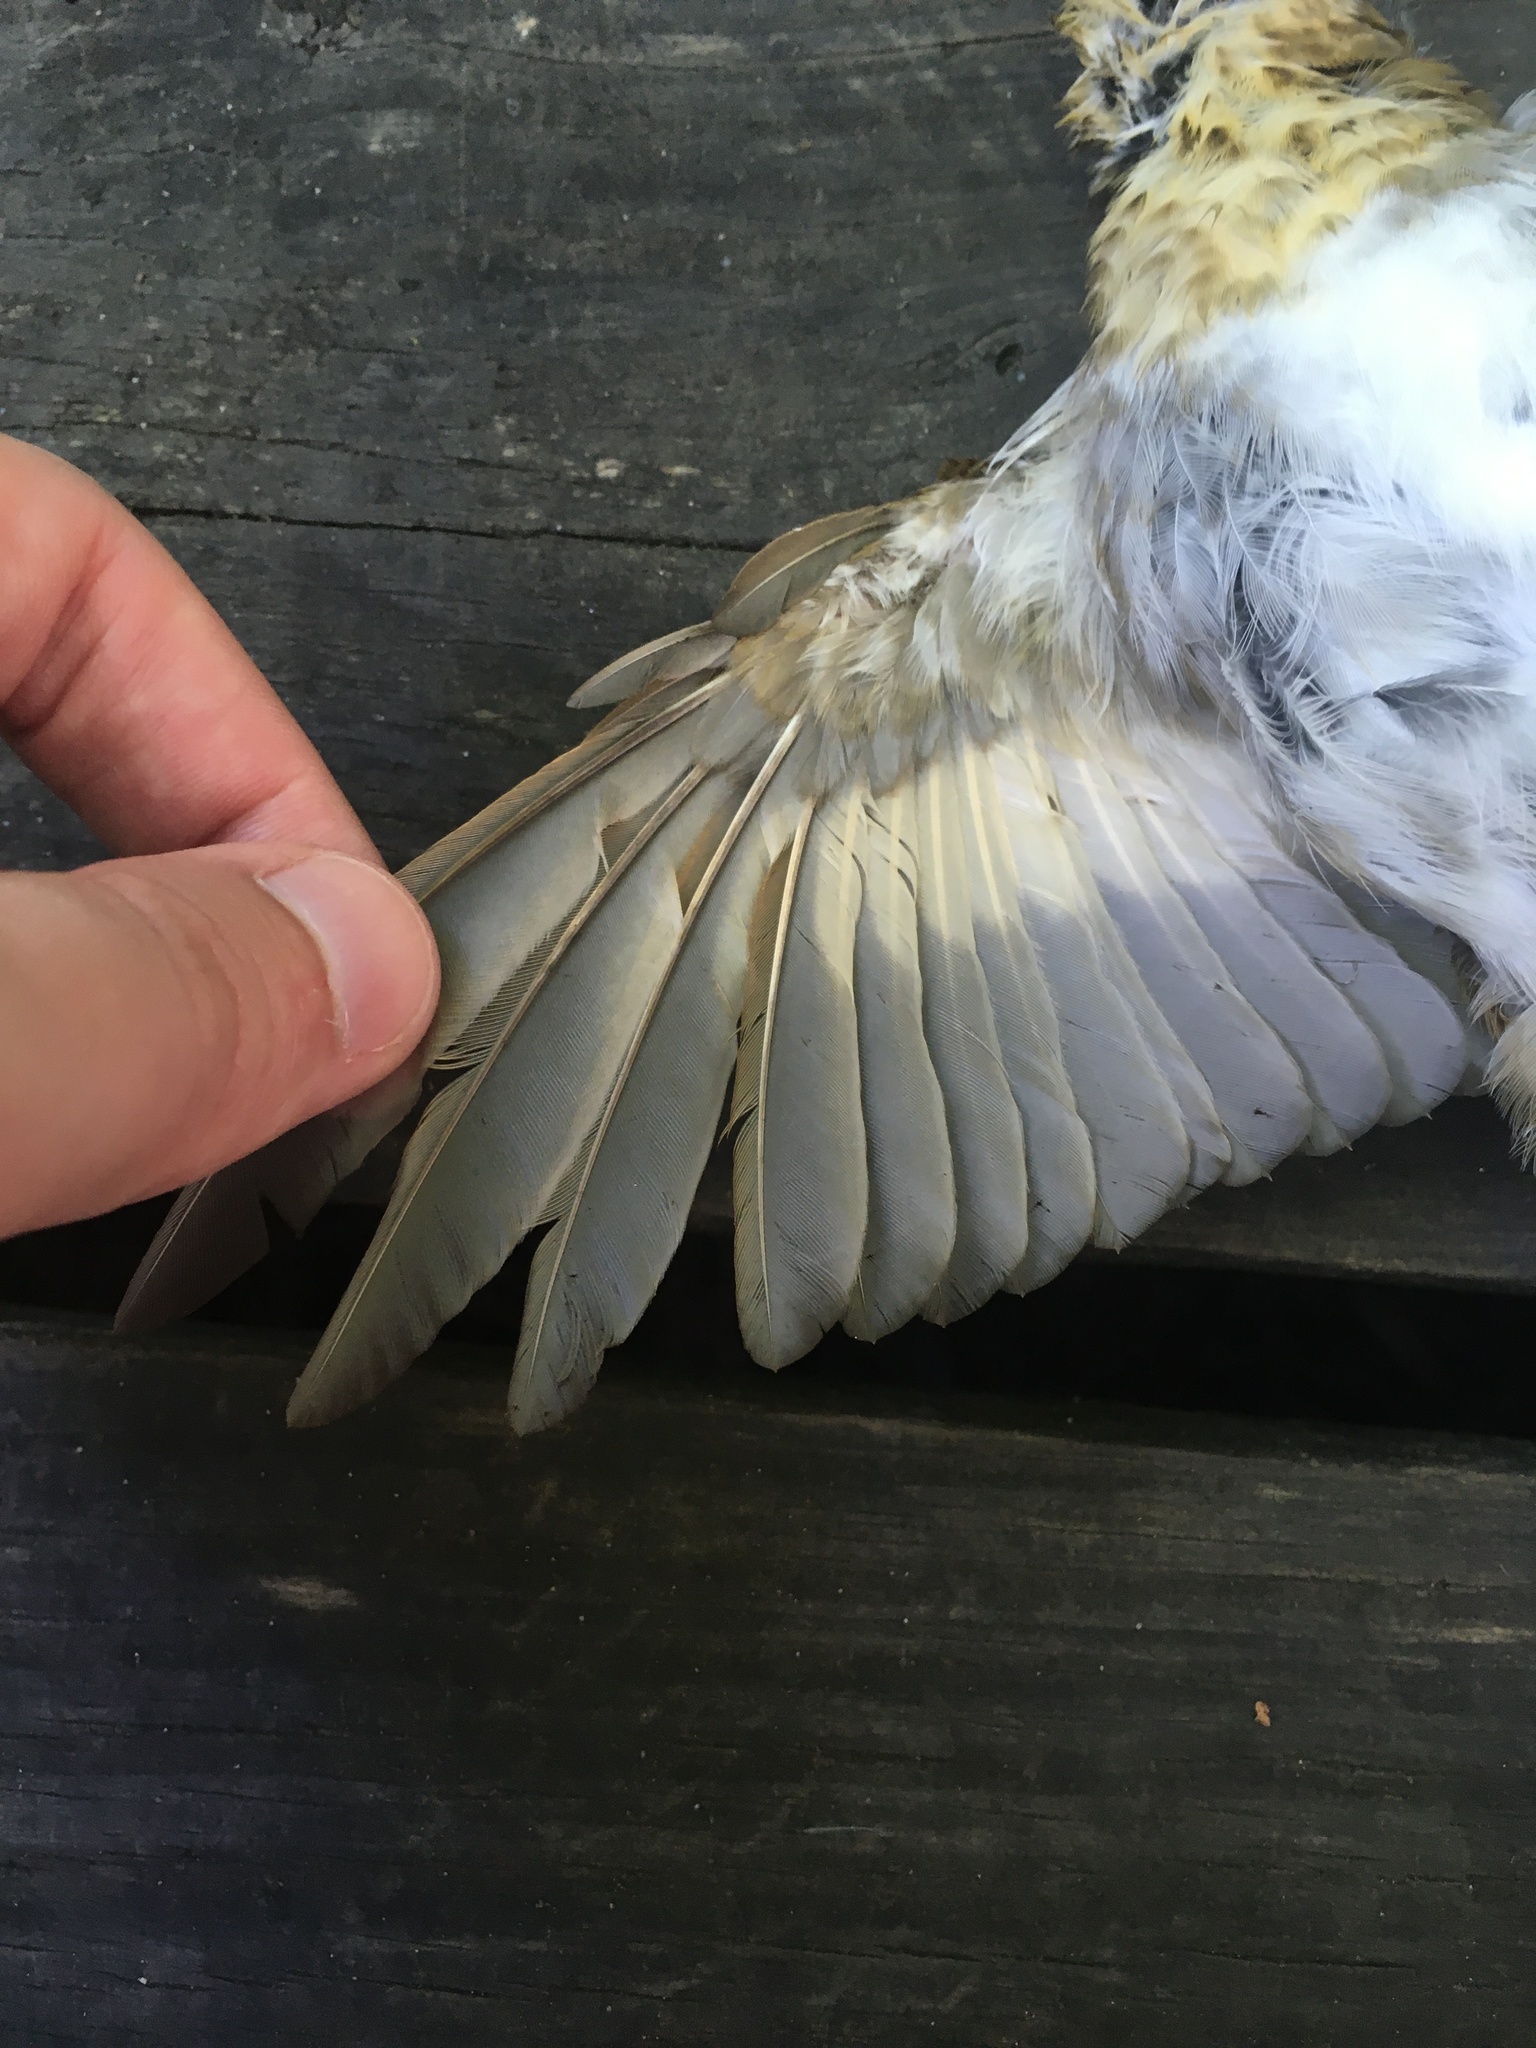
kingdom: Animalia
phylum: Chordata
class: Aves
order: Passeriformes
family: Turdidae
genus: Catharus
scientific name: Catharus fuscescens
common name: Veery
